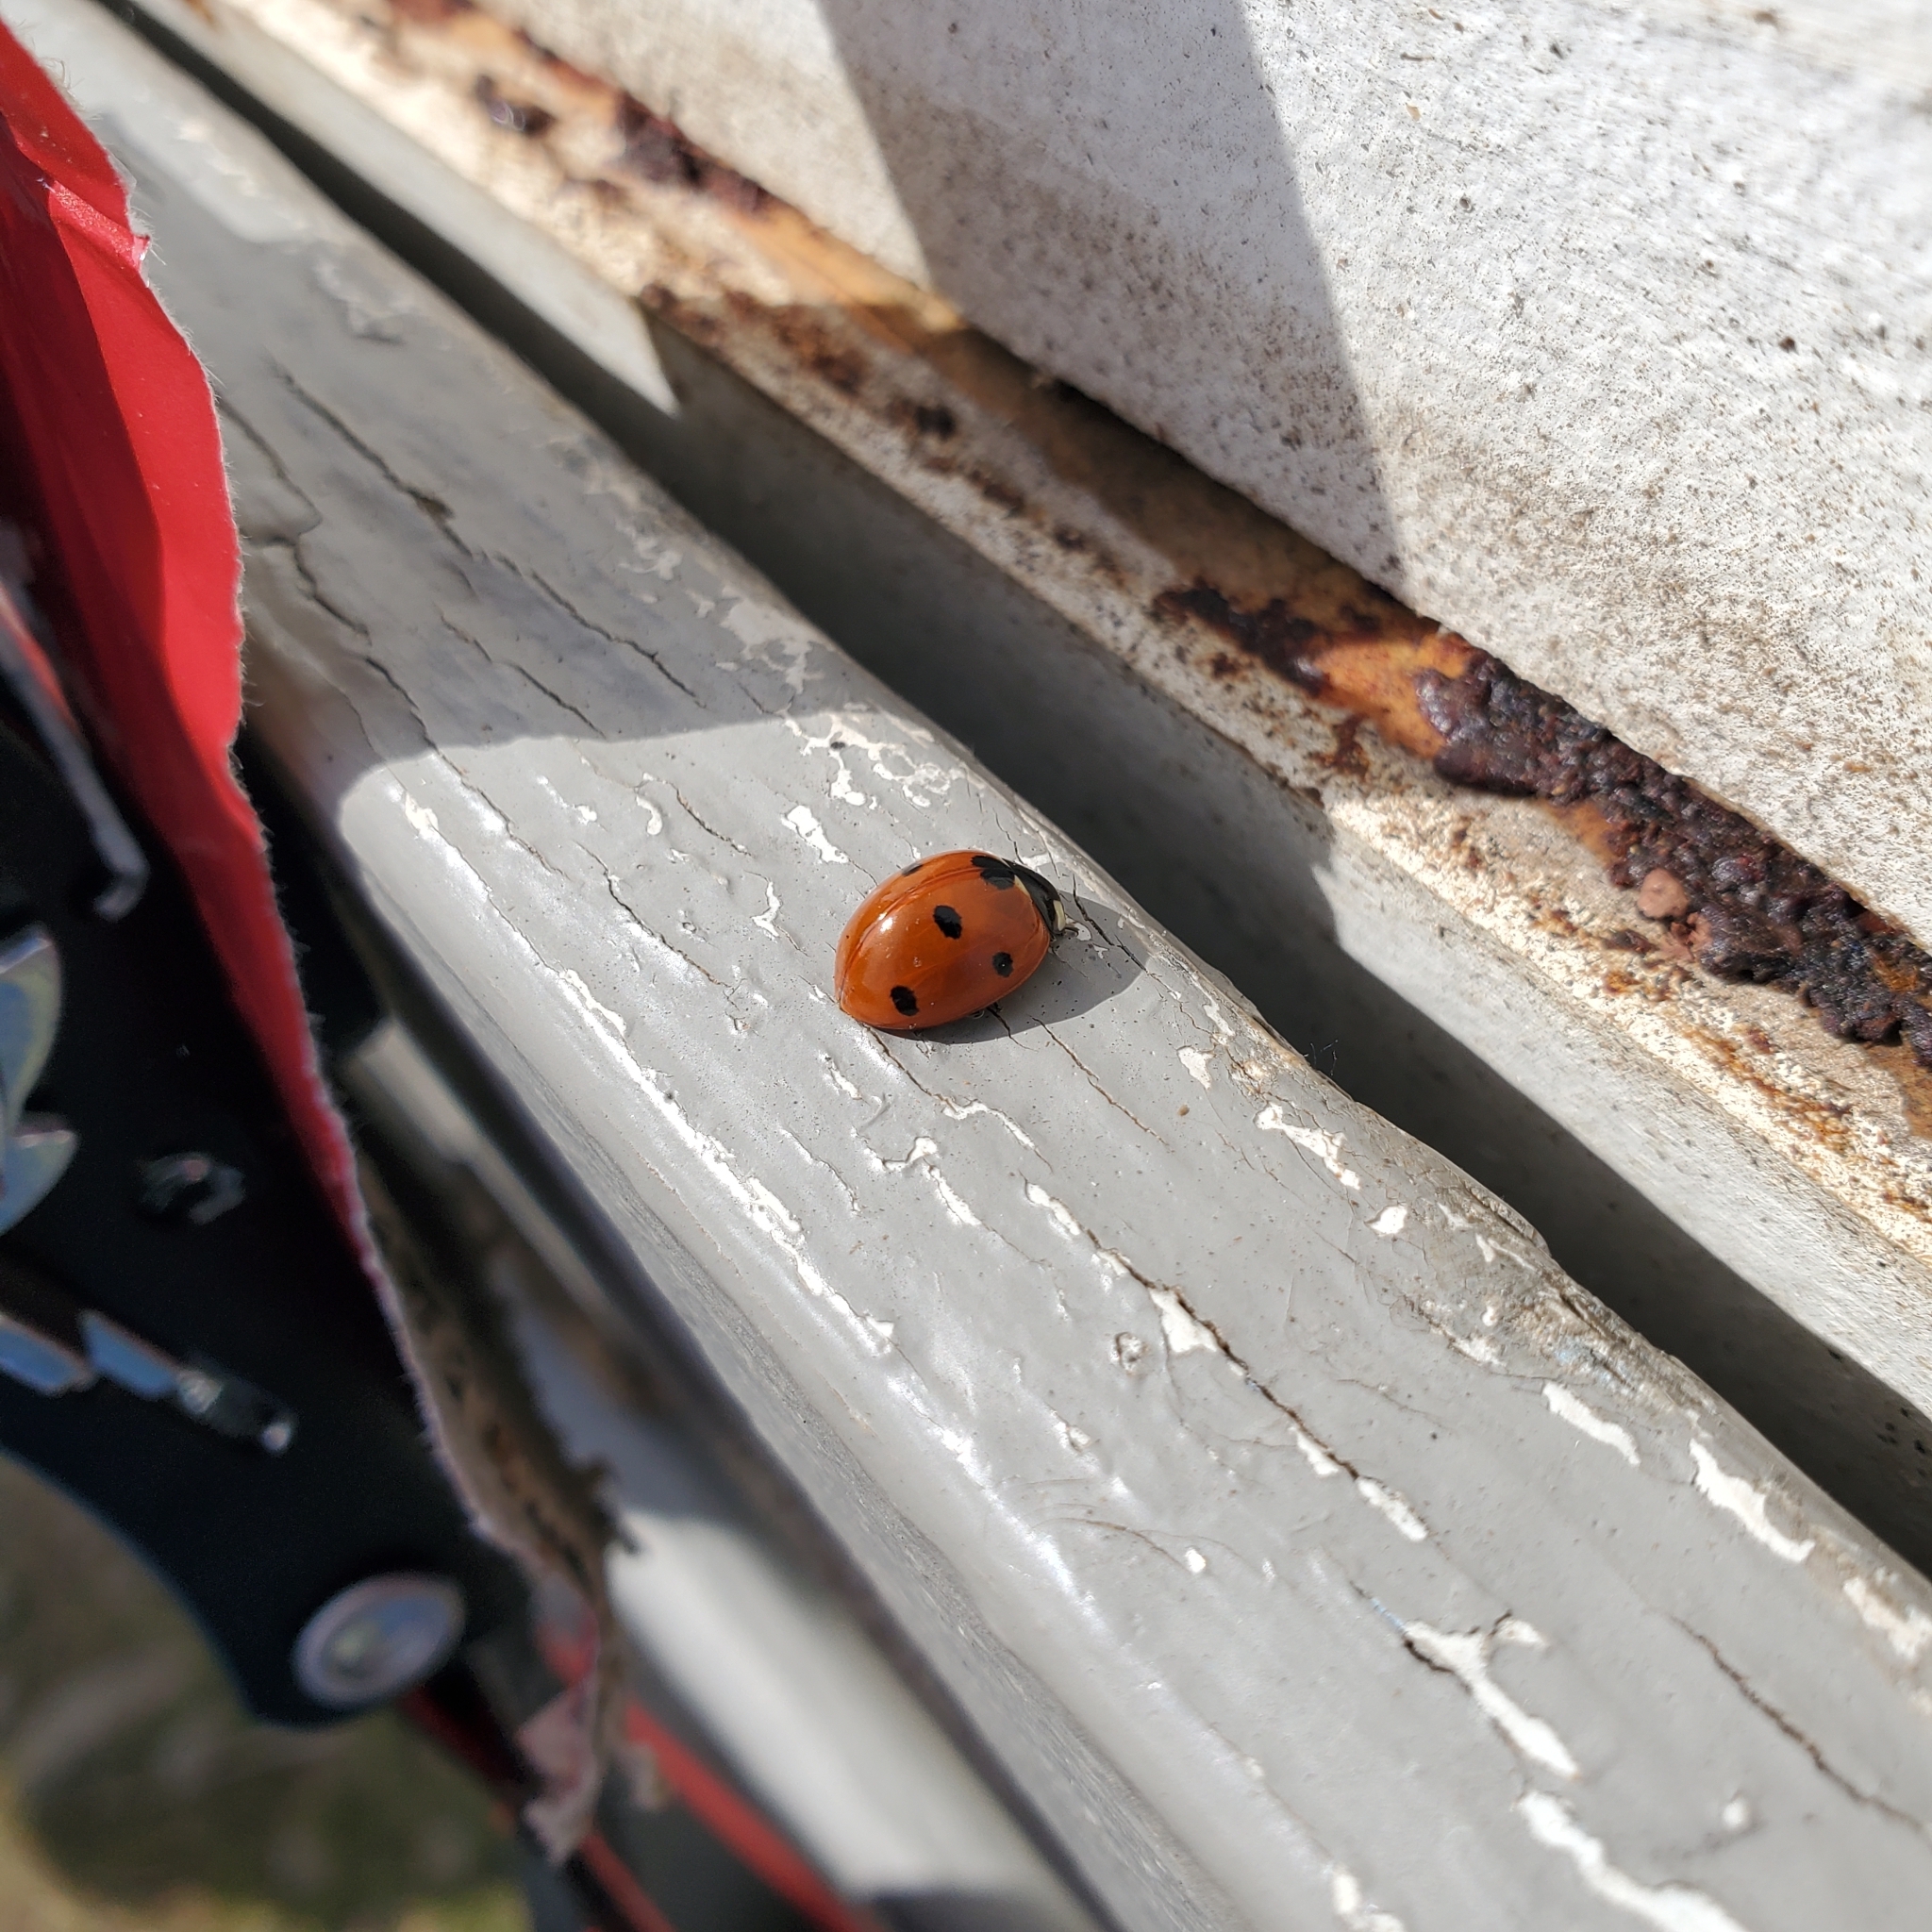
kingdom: Animalia
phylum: Arthropoda
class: Insecta
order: Coleoptera
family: Coccinellidae
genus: Coccinella
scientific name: Coccinella septempunctata
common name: Sevenspotted lady beetle
